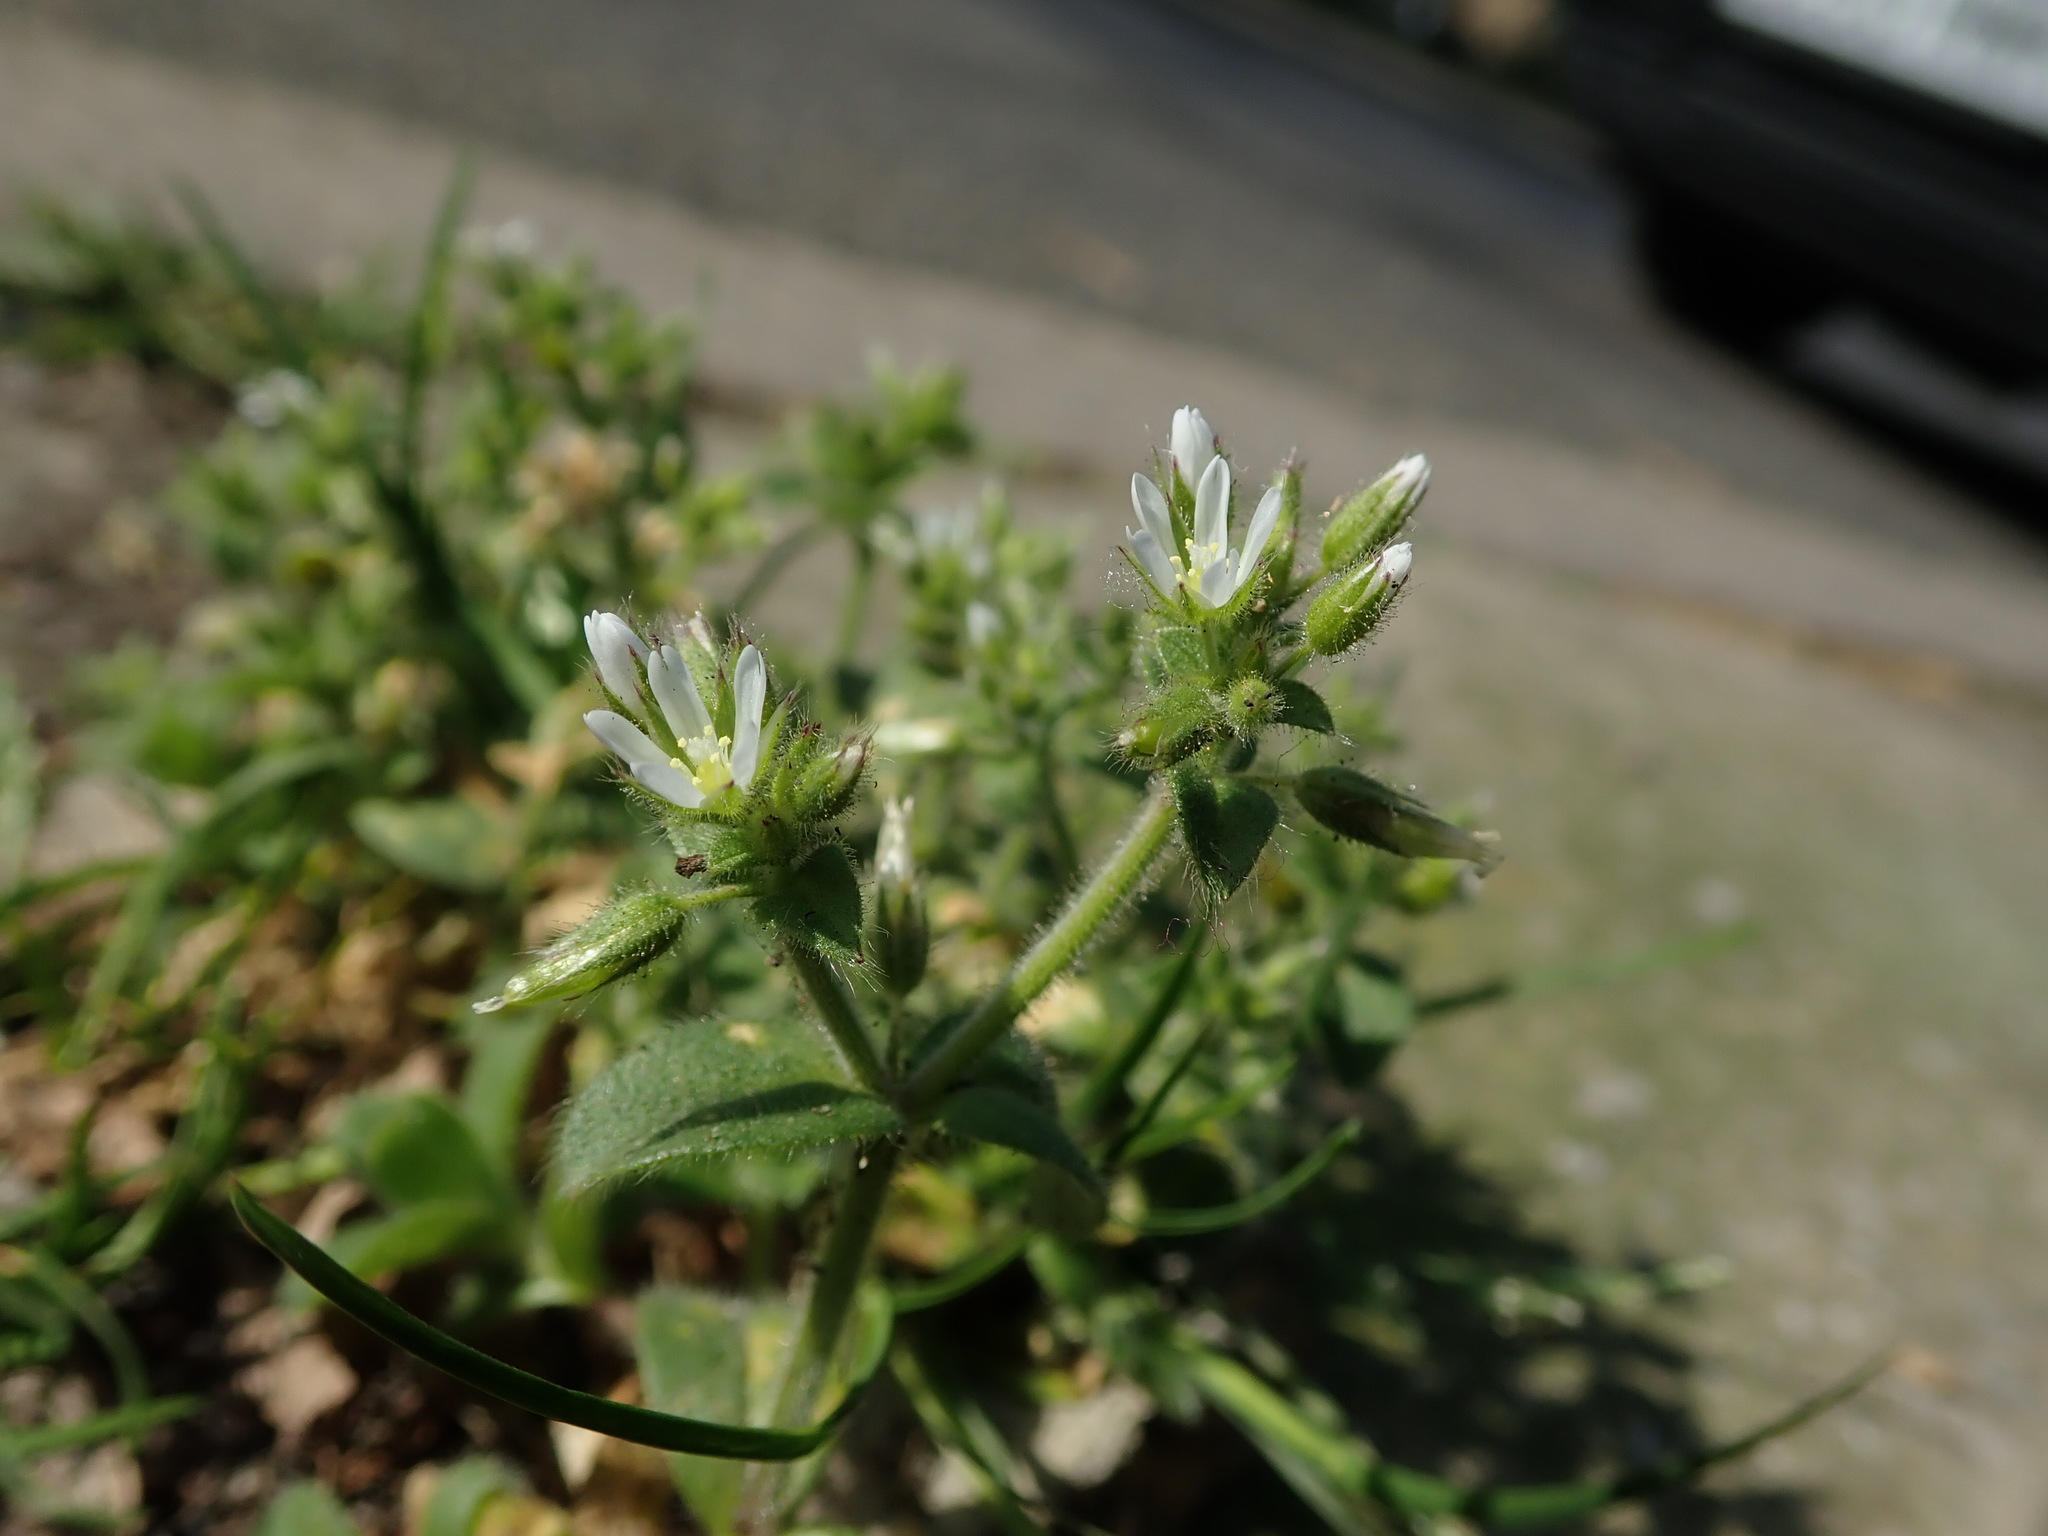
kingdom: Plantae
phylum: Tracheophyta
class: Magnoliopsida
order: Caryophyllales
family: Caryophyllaceae
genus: Cerastium
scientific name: Cerastium glomeratum
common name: Sticky chickweed
